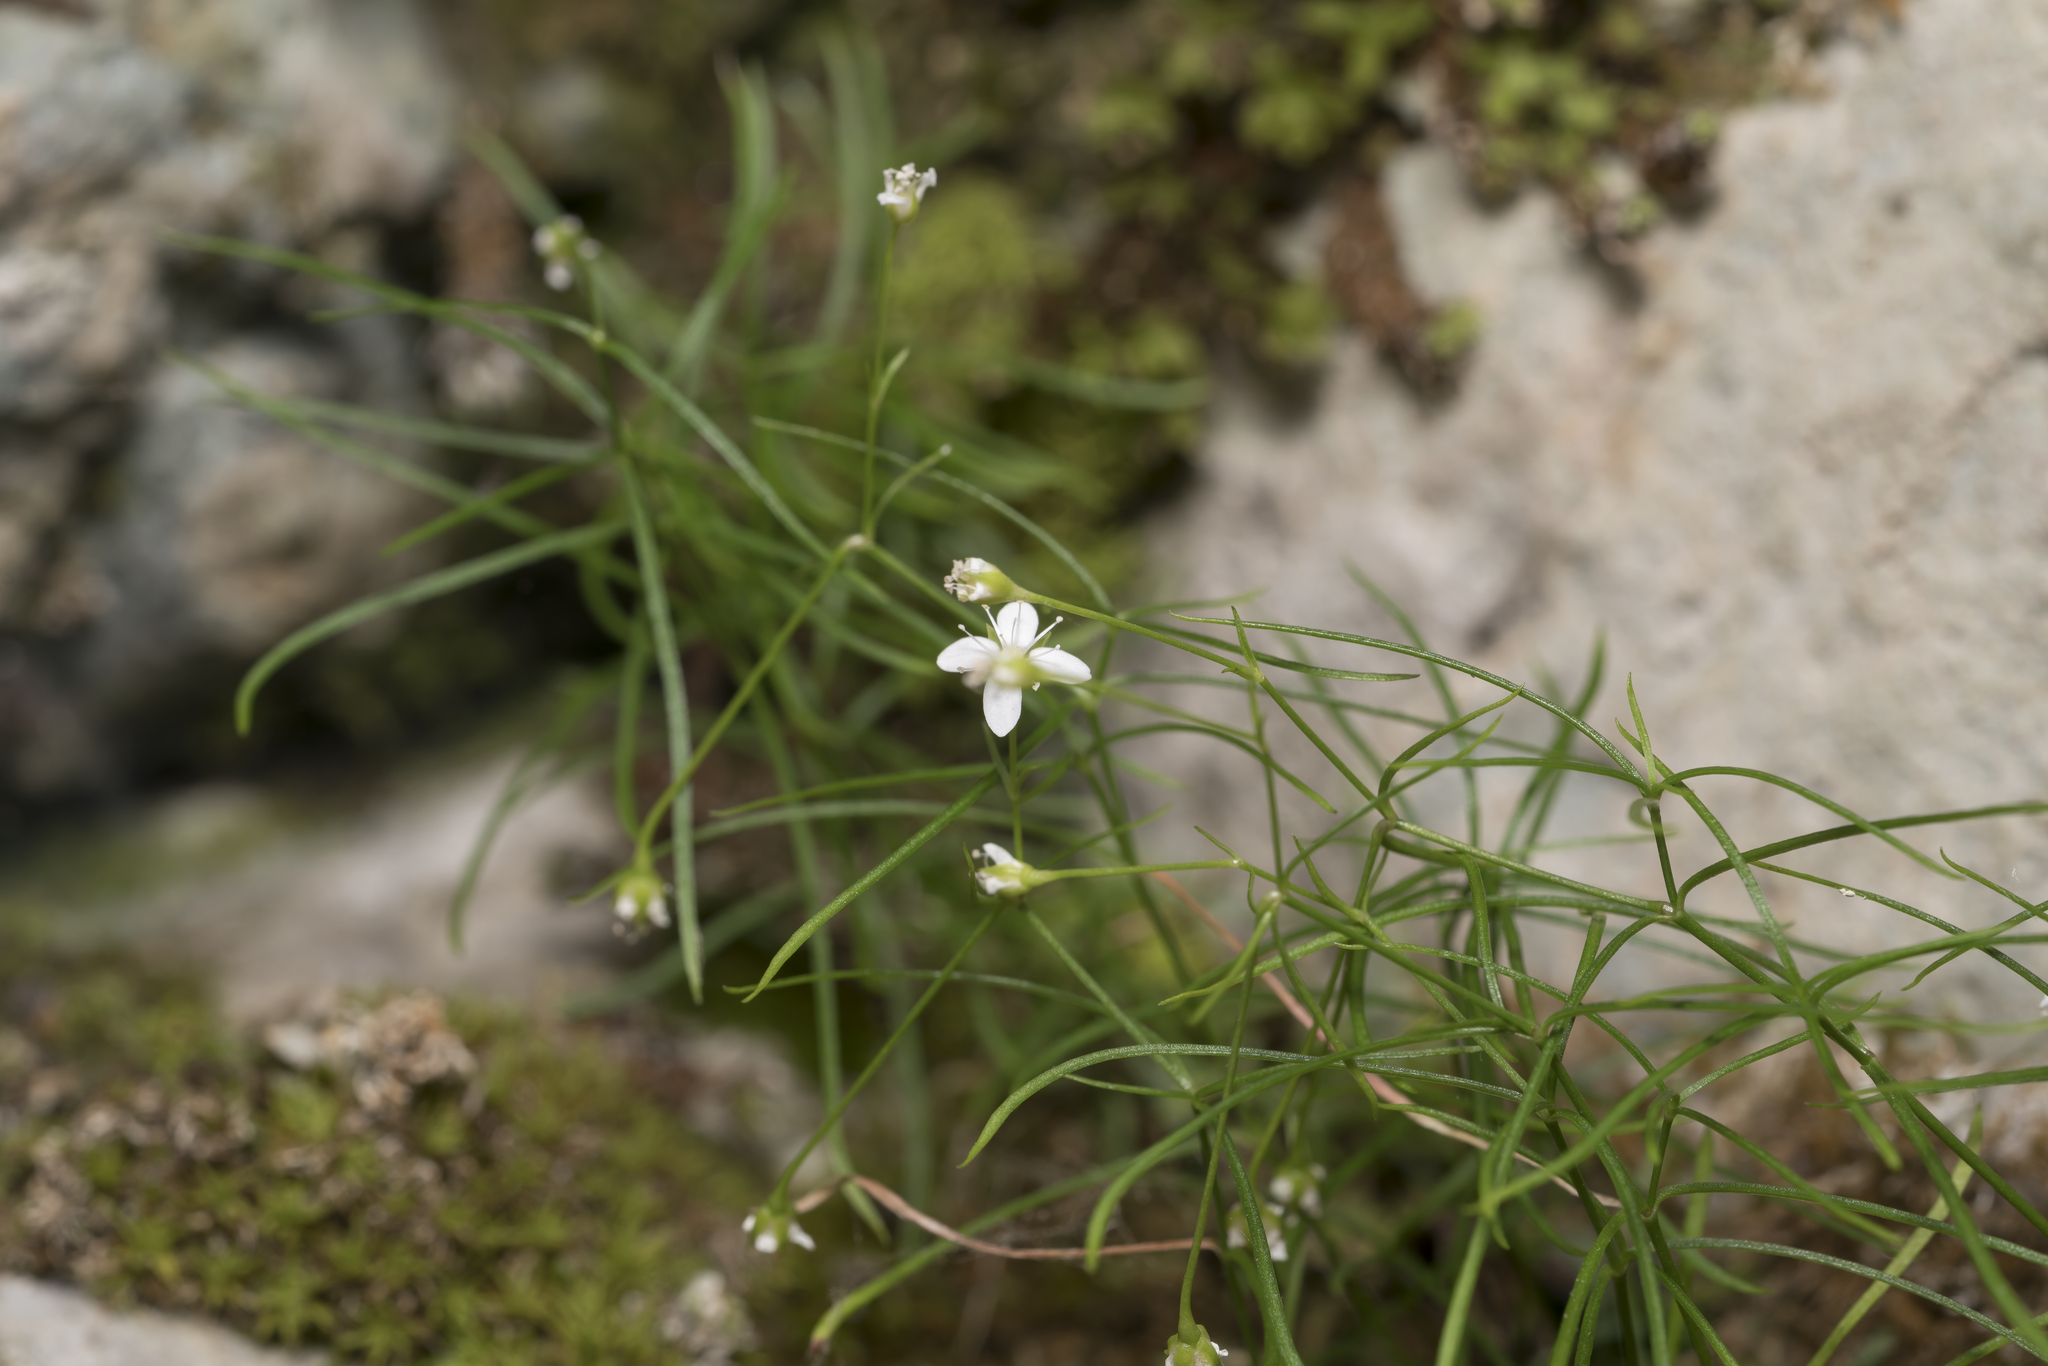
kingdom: Plantae
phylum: Tracheophyta
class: Magnoliopsida
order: Caryophyllales
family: Caryophyllaceae
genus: Moehringia
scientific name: Moehringia muscosa
